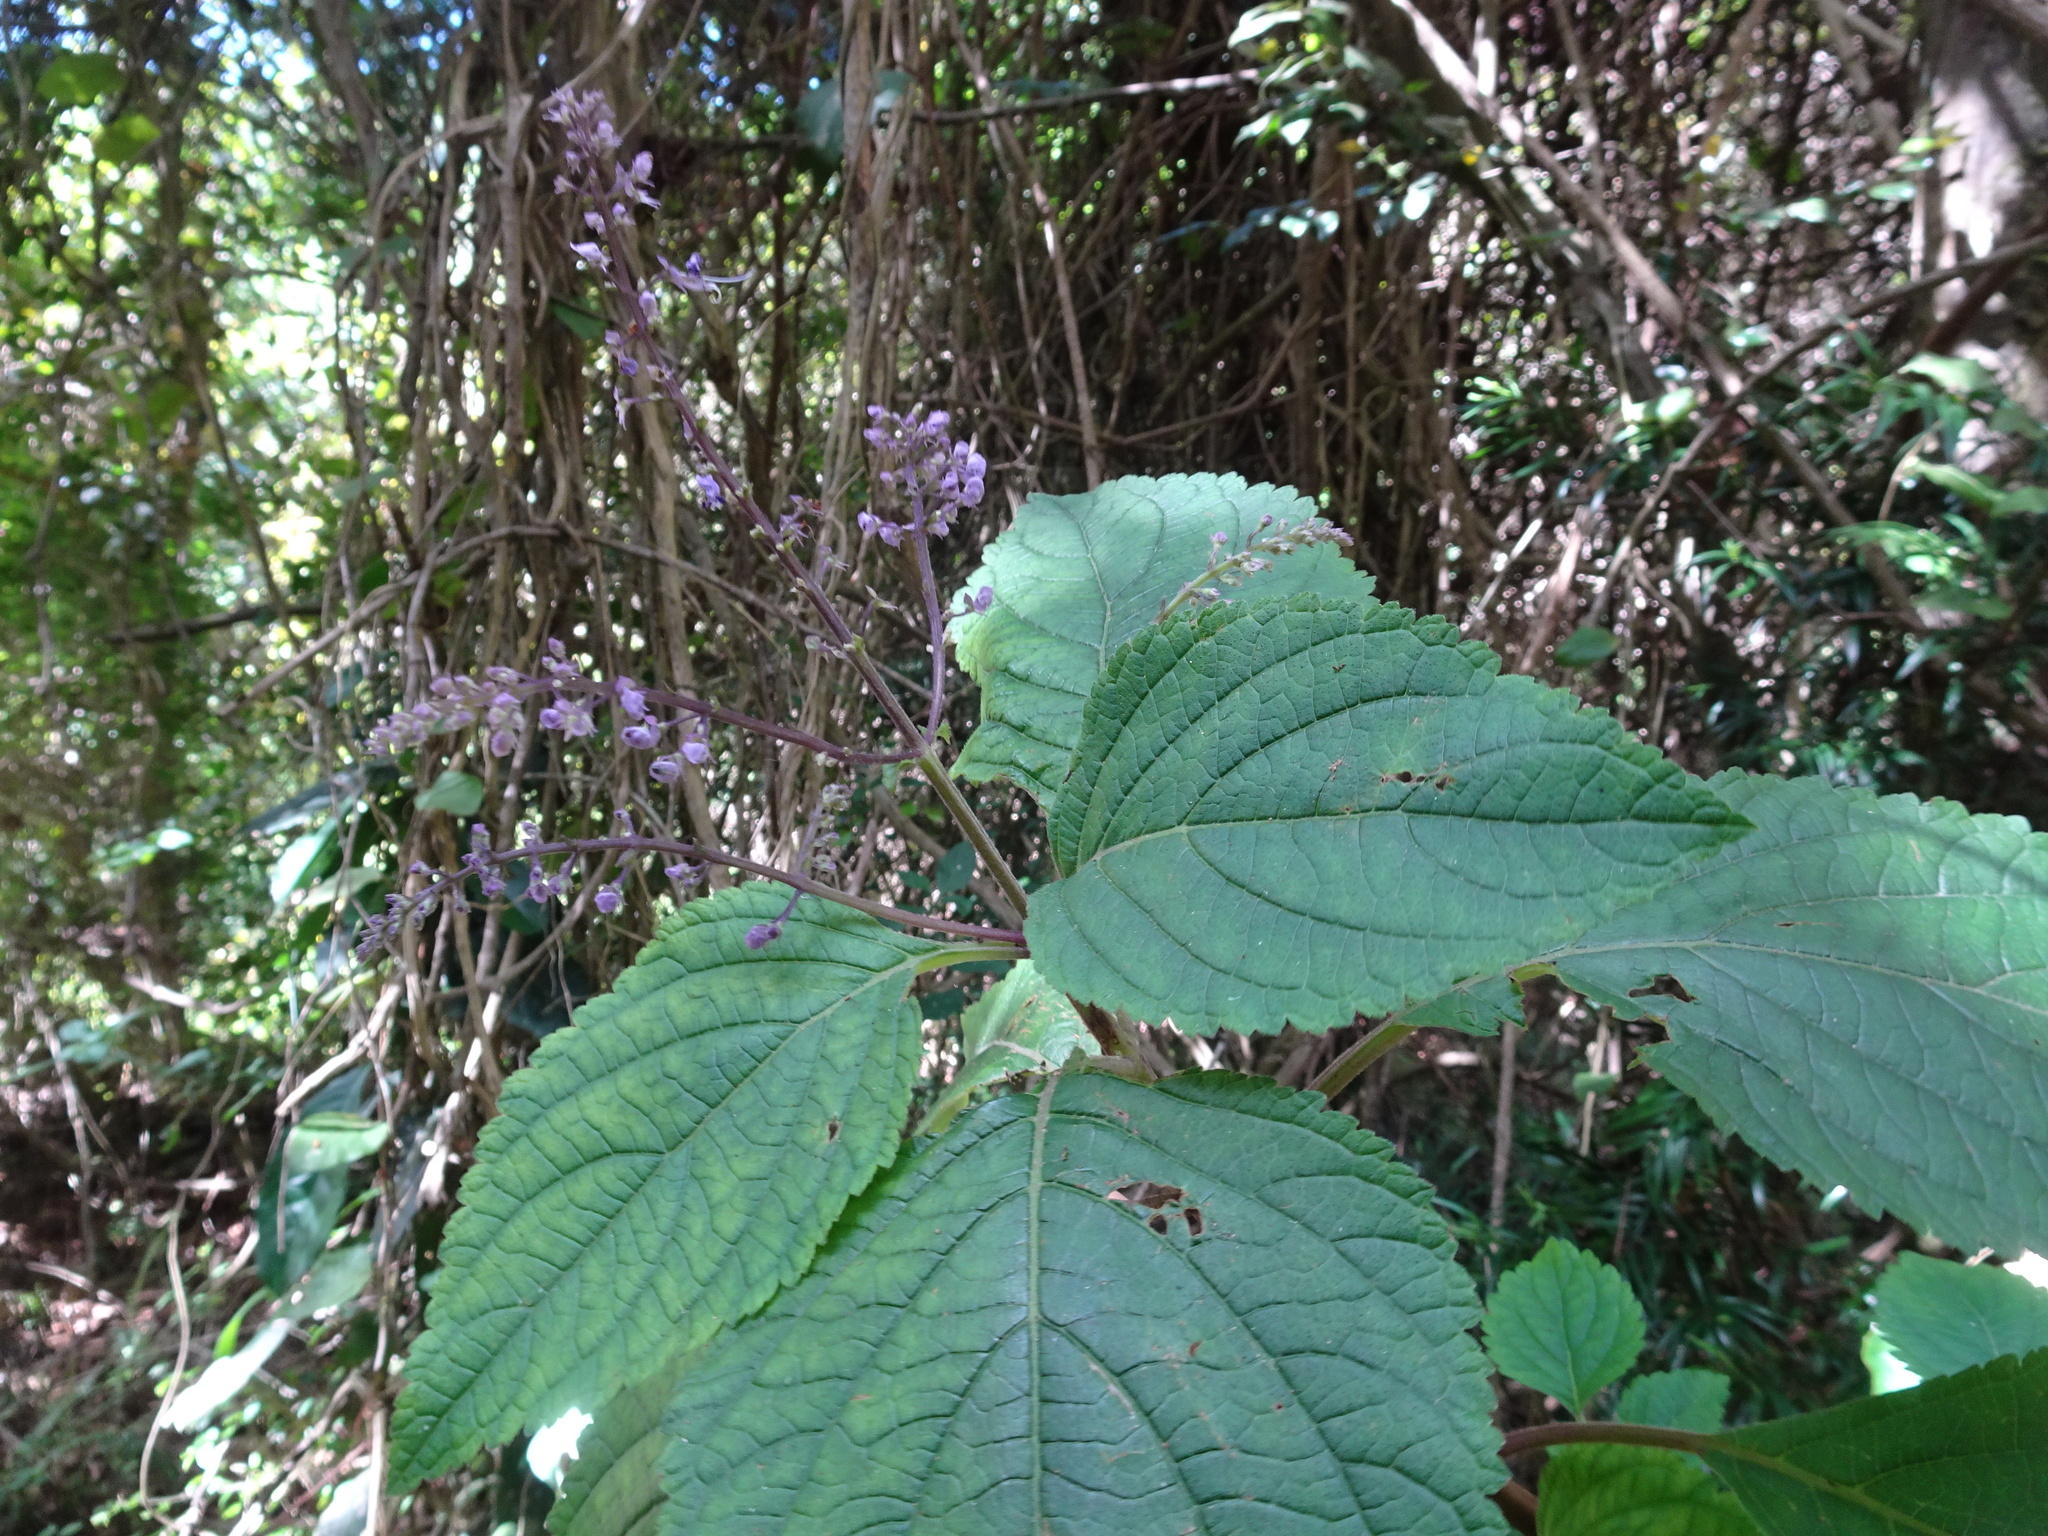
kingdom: Plantae
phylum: Tracheophyta
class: Magnoliopsida
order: Lamiales
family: Lamiaceae
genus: Plectranthus
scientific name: Plectranthus fruticosus
